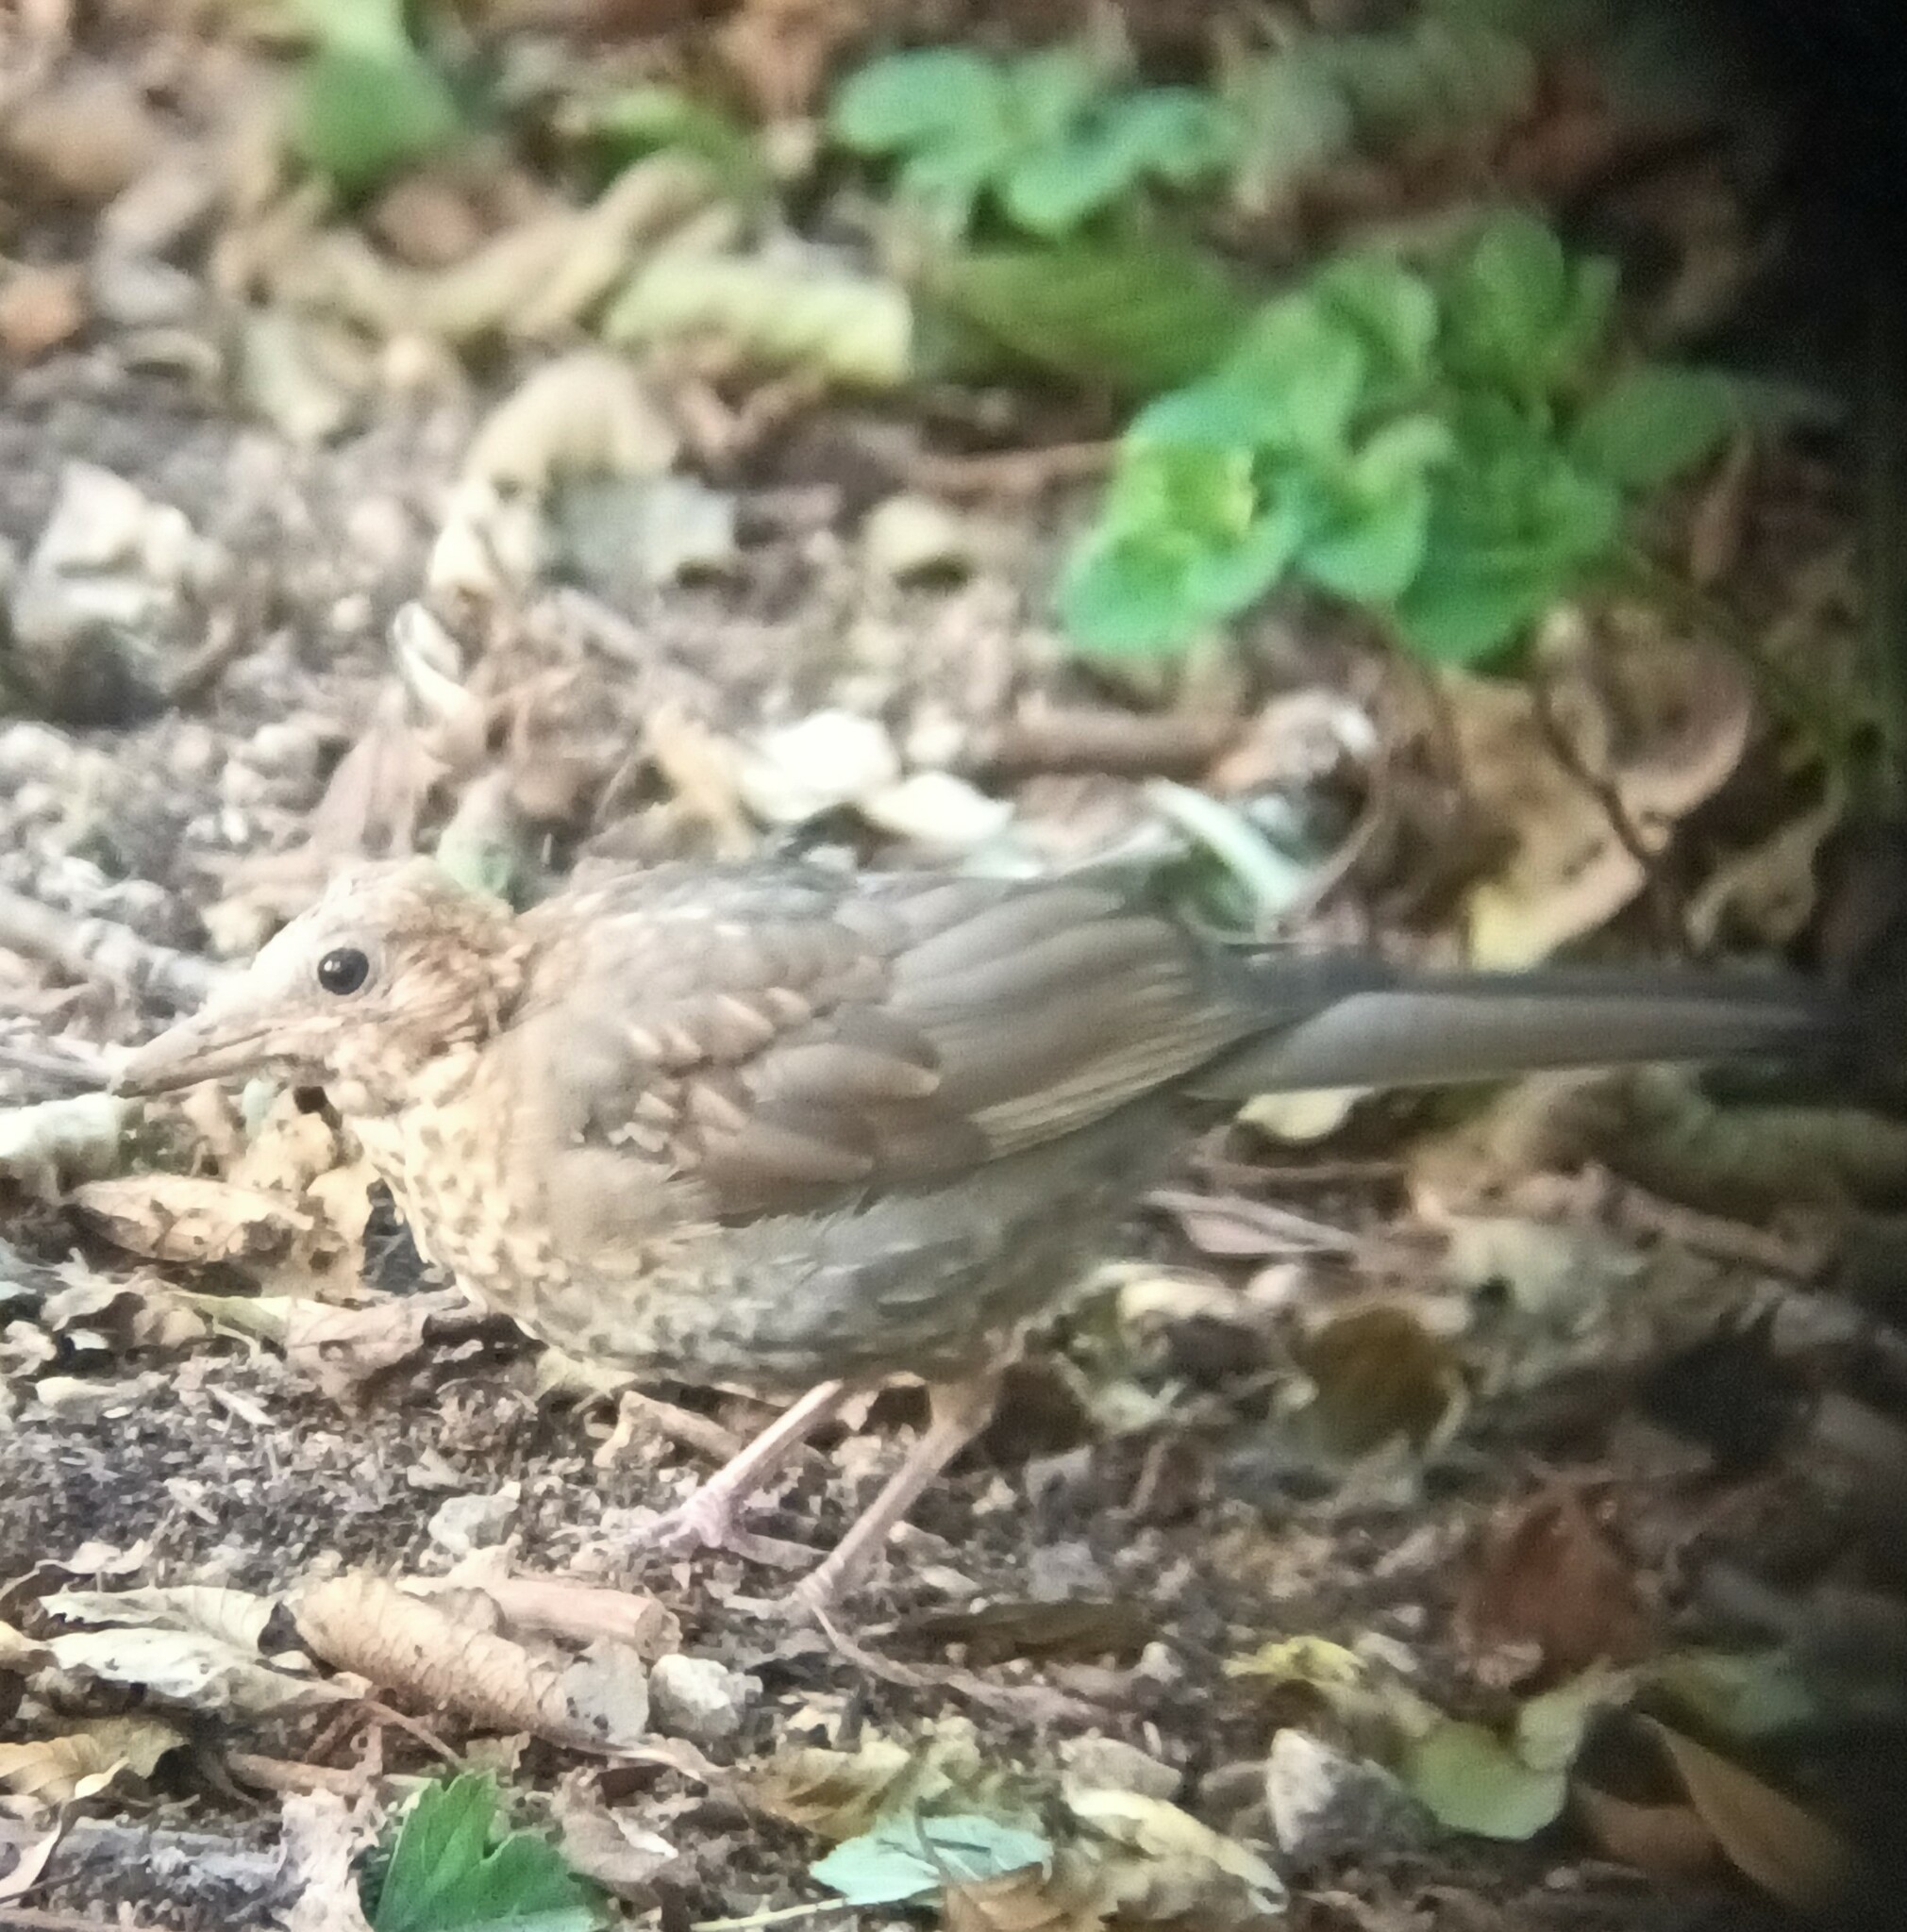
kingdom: Animalia
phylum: Chordata
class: Aves
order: Passeriformes
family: Turdidae
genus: Turdus
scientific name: Turdus merula
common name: Common blackbird
